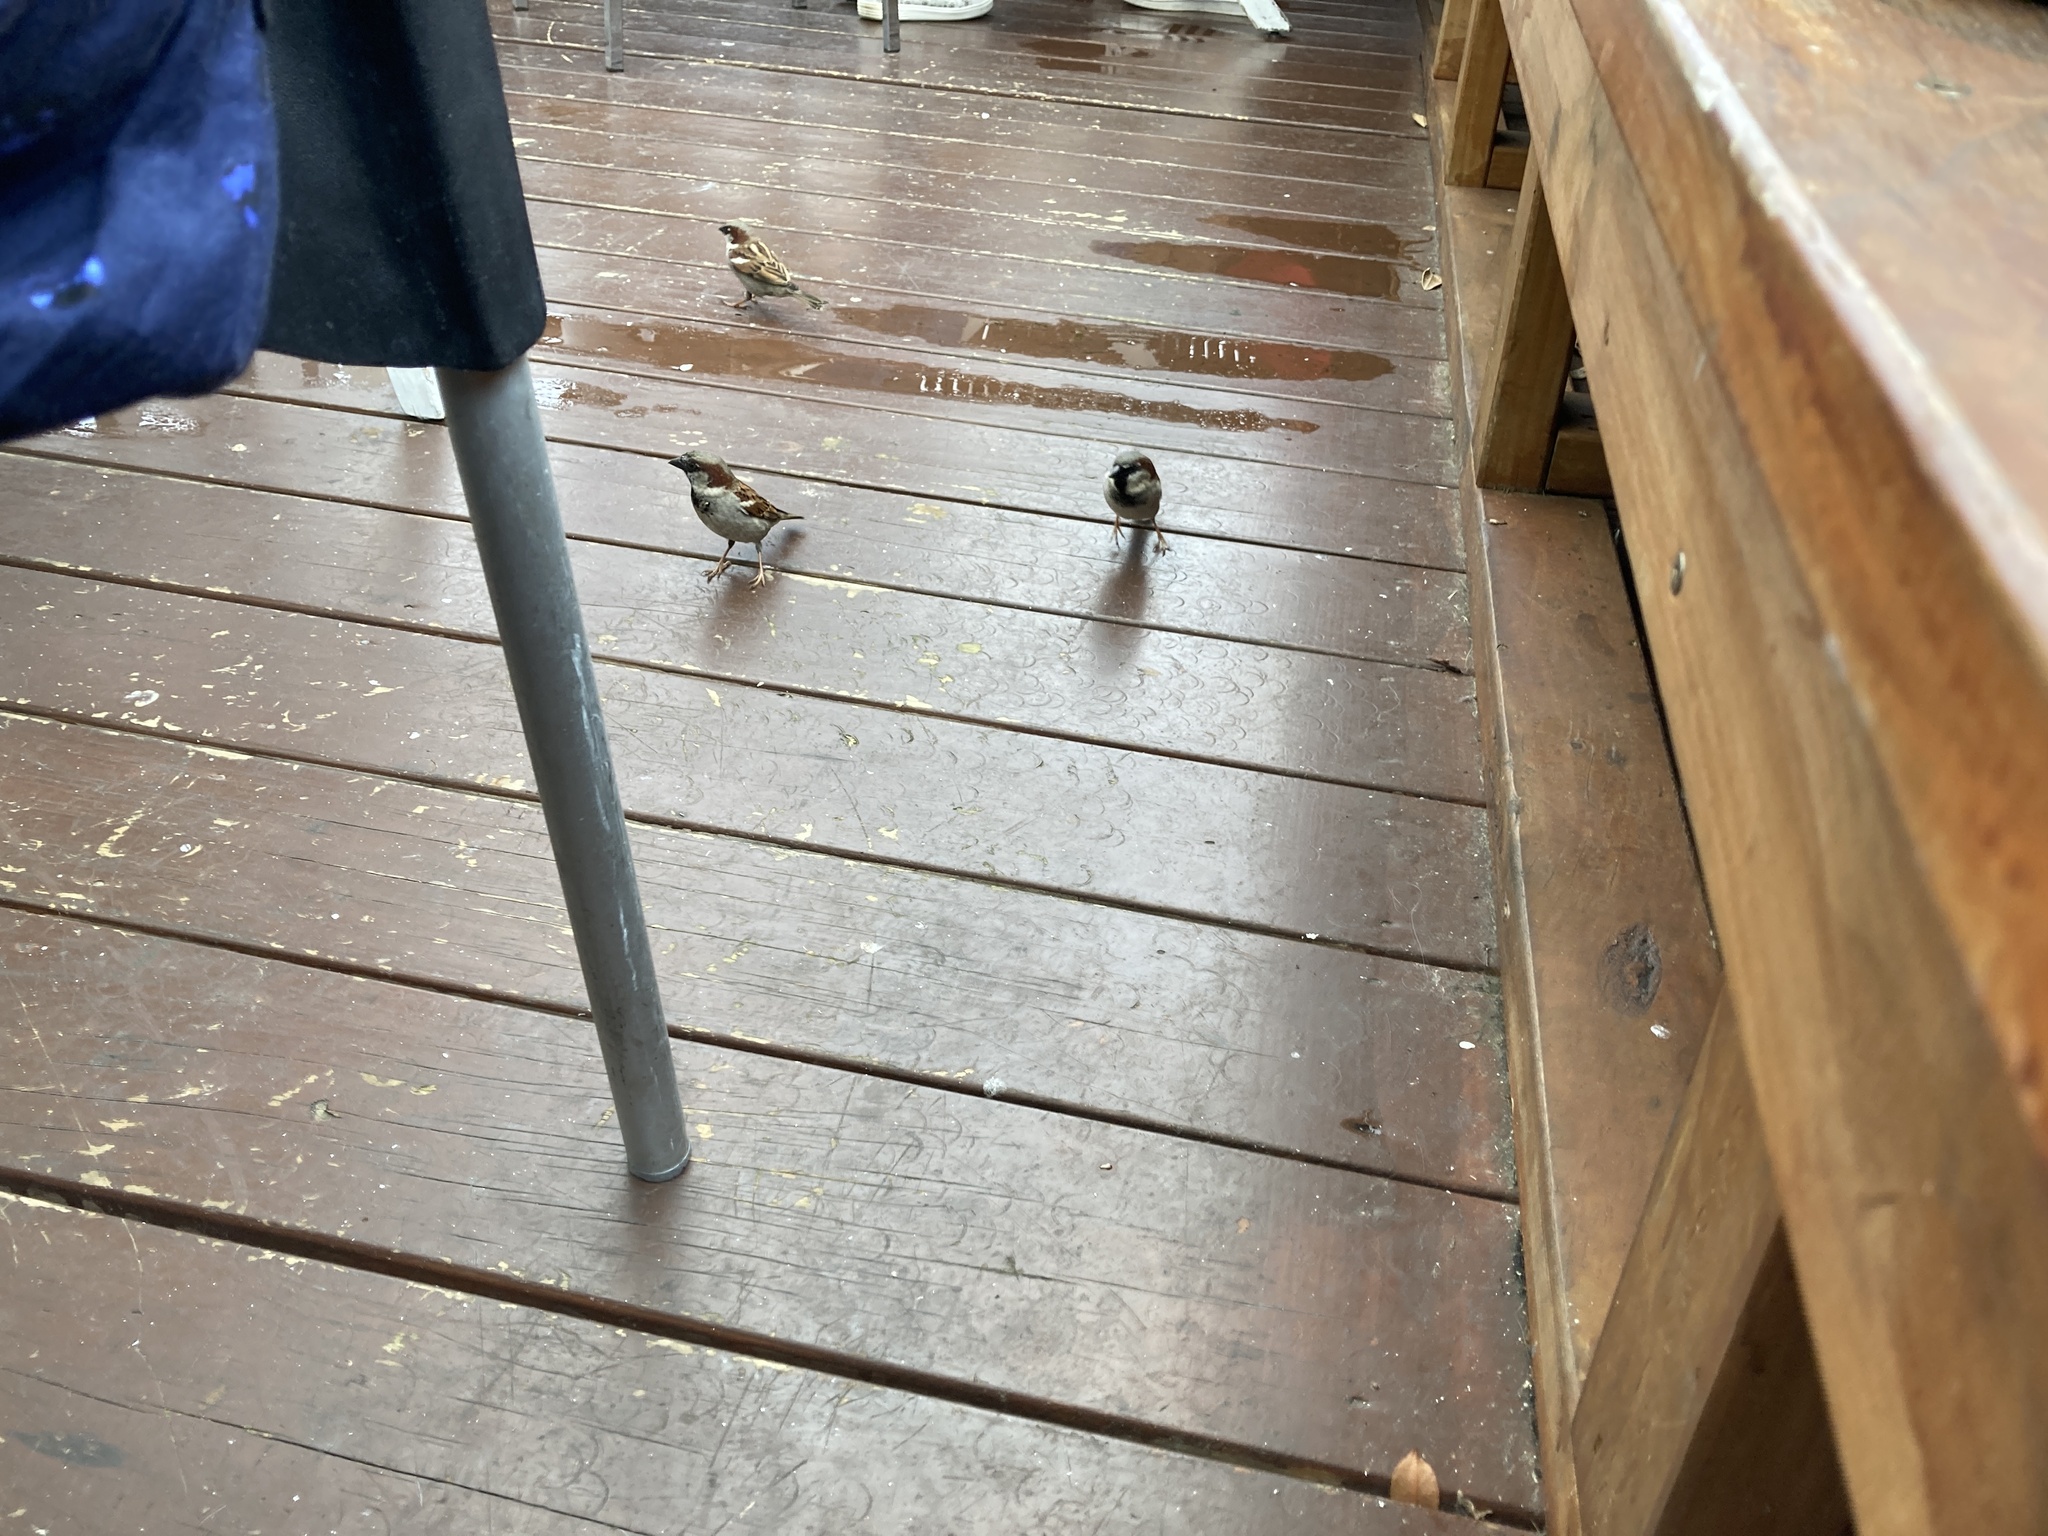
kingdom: Animalia
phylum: Chordata
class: Aves
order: Passeriformes
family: Passeridae
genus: Passer
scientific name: Passer domesticus
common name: House sparrow
